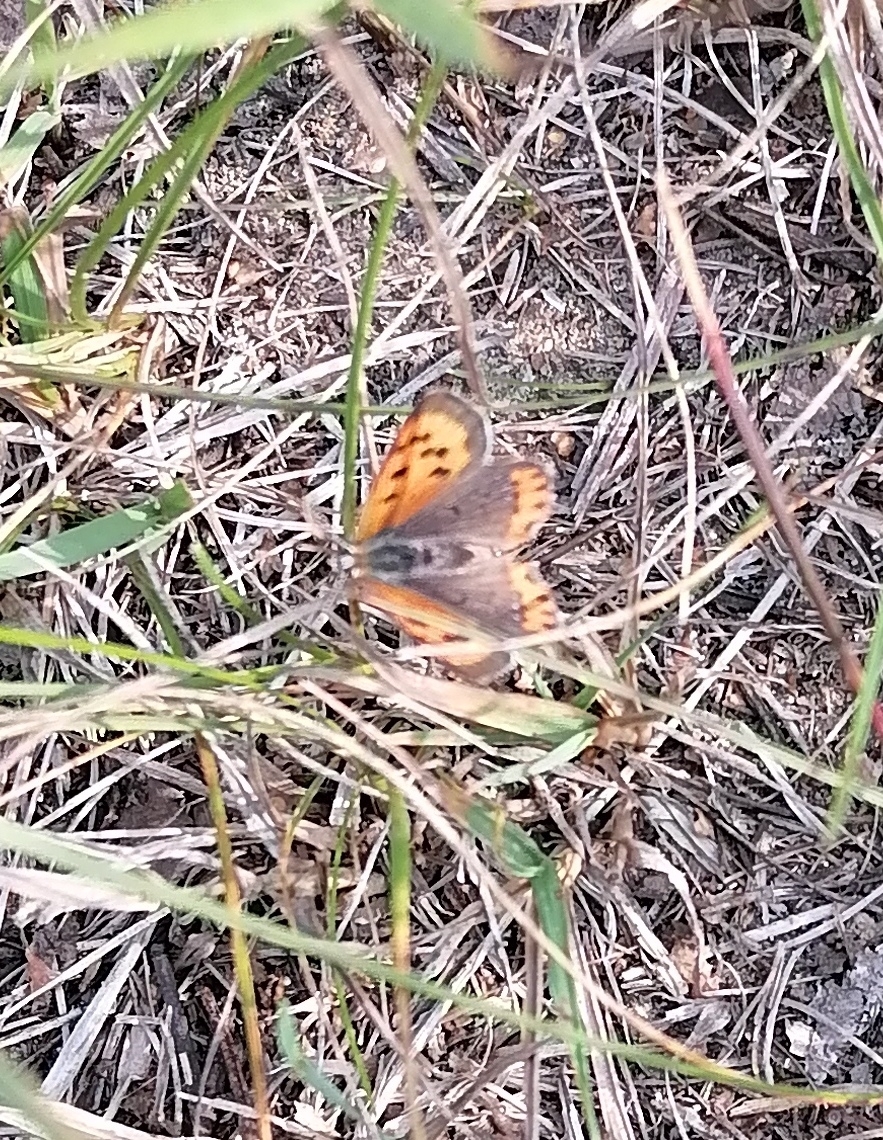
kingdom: Animalia
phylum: Arthropoda
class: Insecta
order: Lepidoptera
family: Lycaenidae
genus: Lycaena
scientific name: Lycaena phlaeas
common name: Small copper
